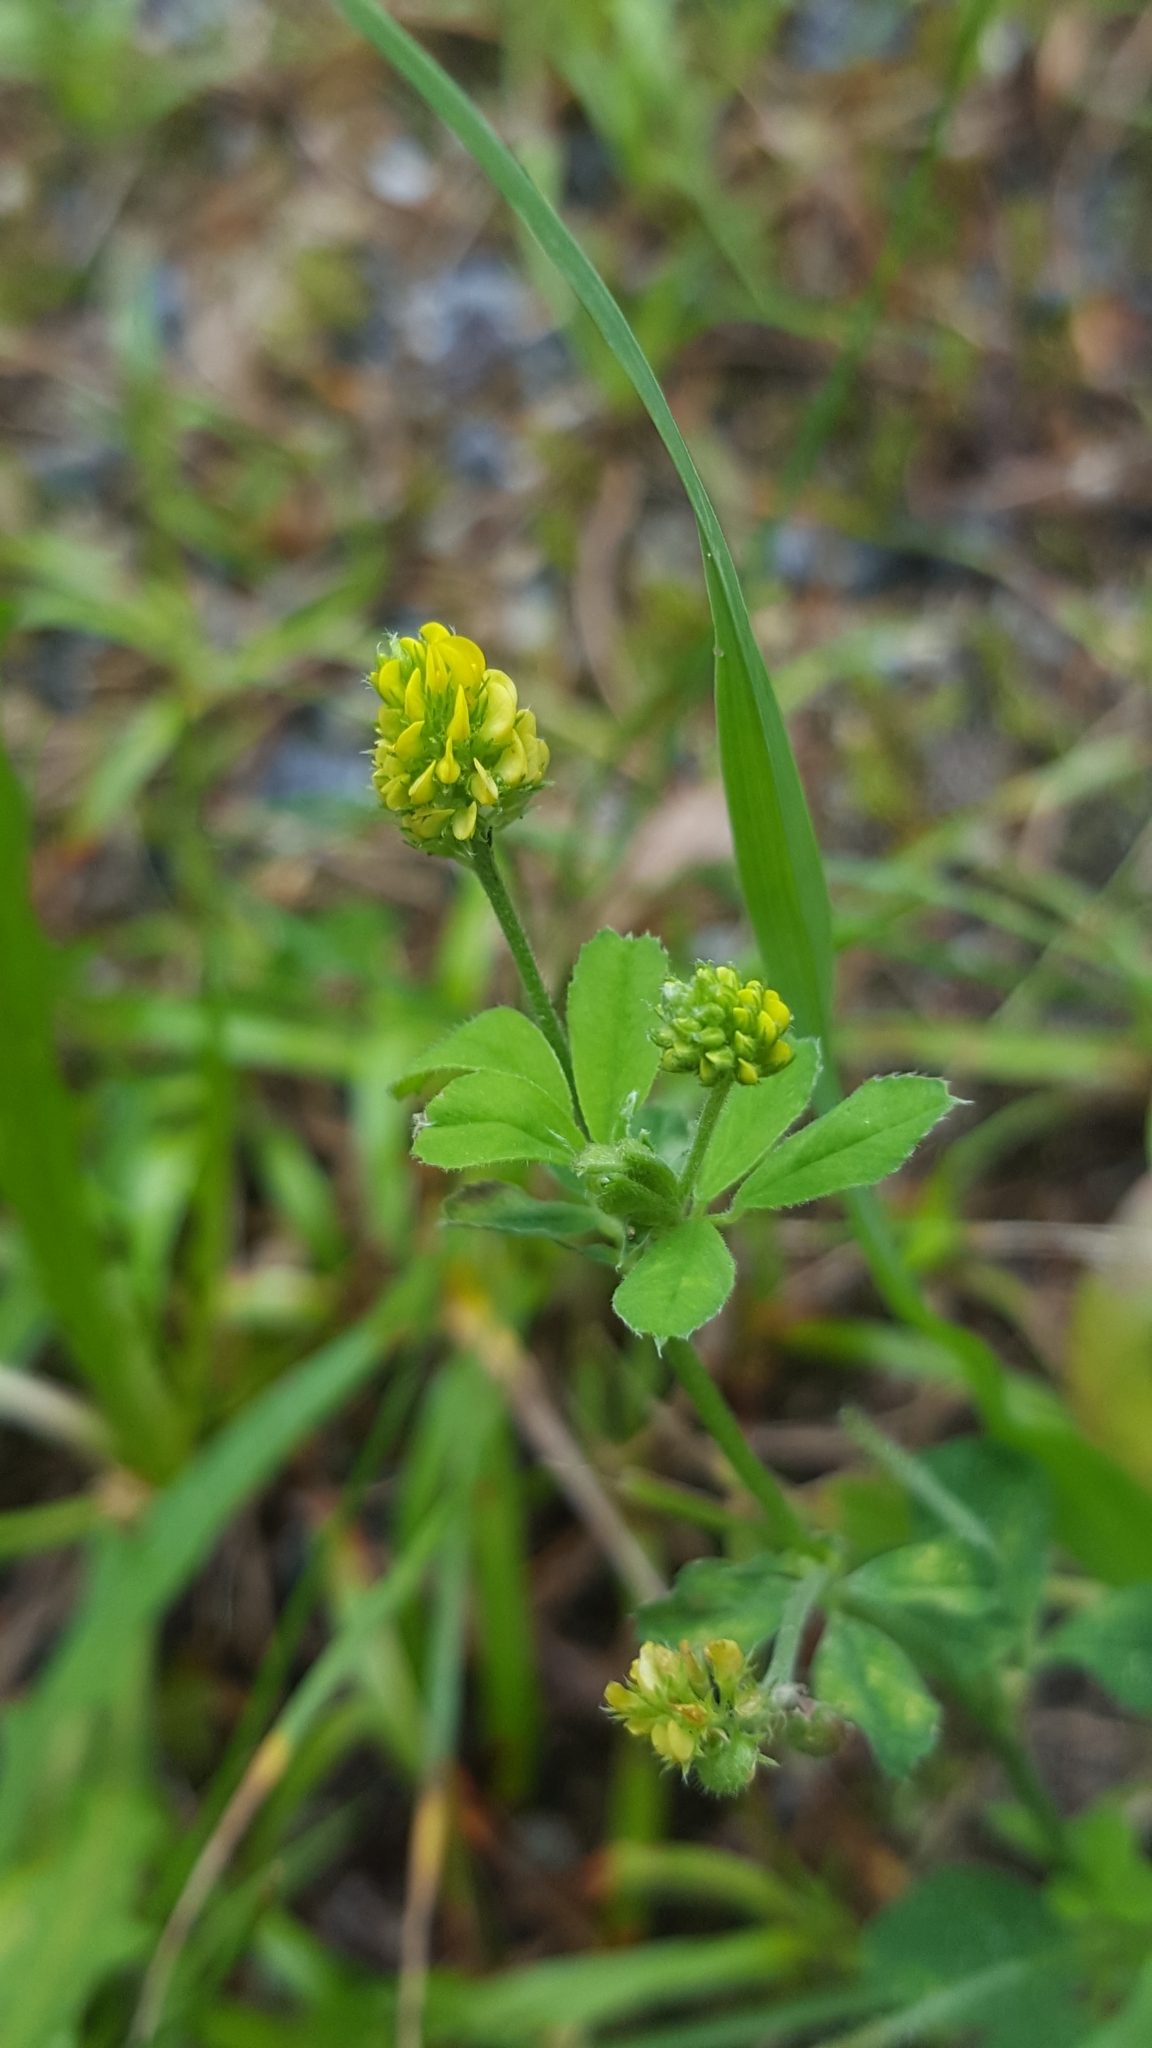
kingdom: Plantae
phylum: Tracheophyta
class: Magnoliopsida
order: Fabales
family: Fabaceae
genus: Medicago
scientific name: Medicago lupulina
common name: Black medick
